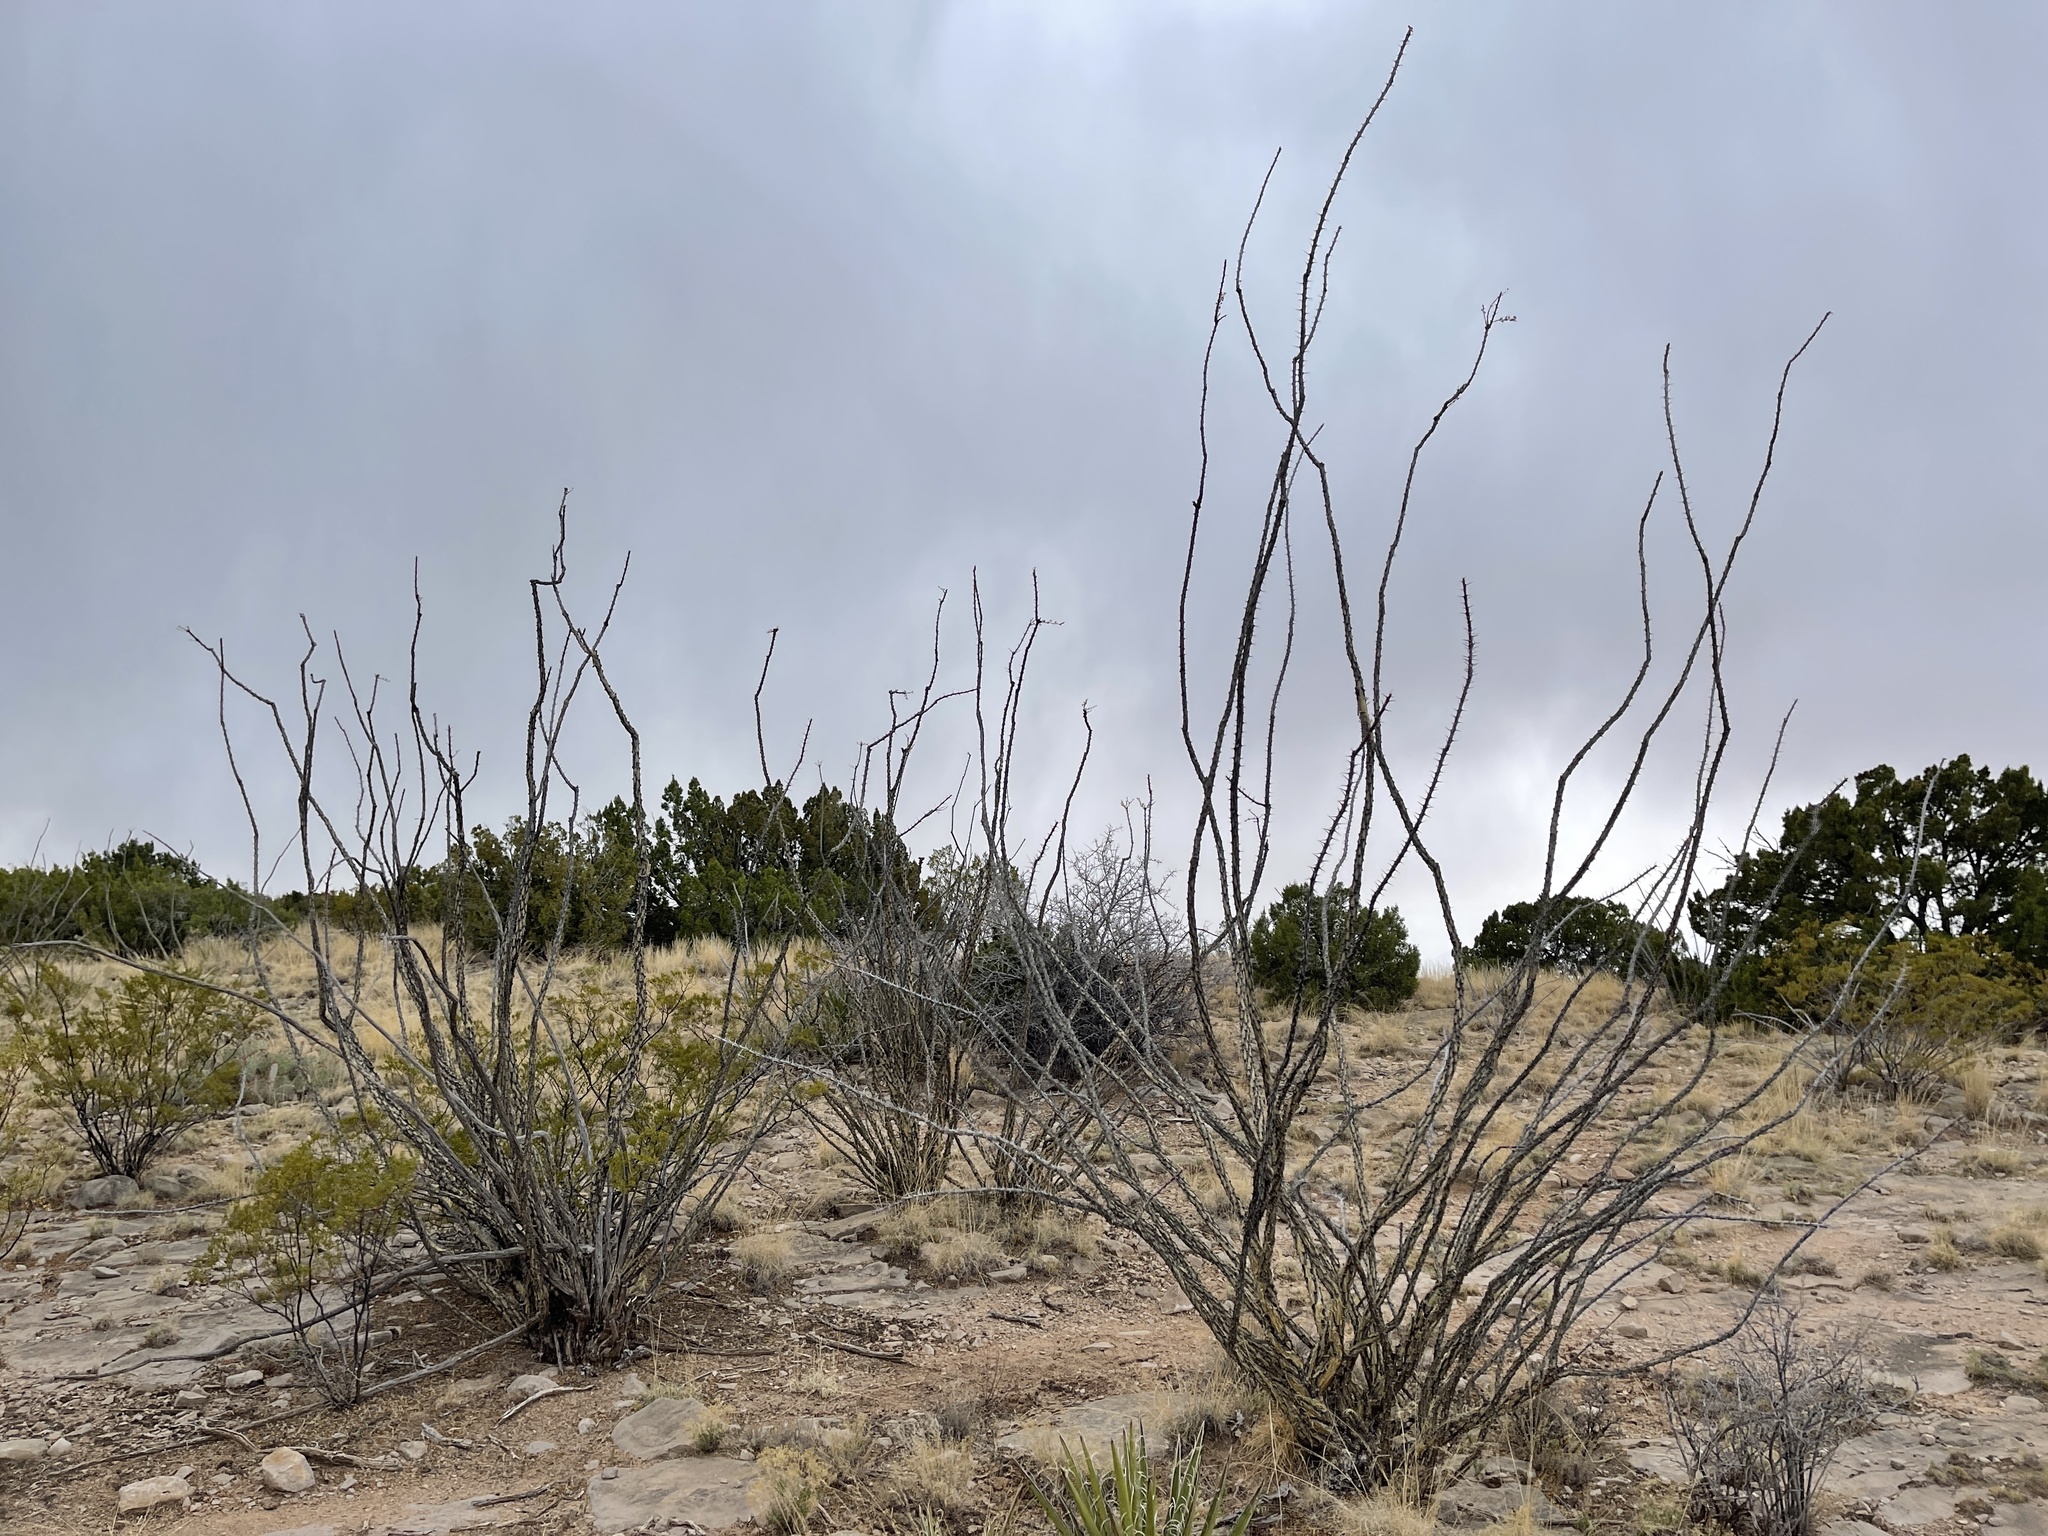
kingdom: Plantae
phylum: Tracheophyta
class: Magnoliopsida
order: Ericales
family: Fouquieriaceae
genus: Fouquieria
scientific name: Fouquieria splendens
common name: Vine-cactus
